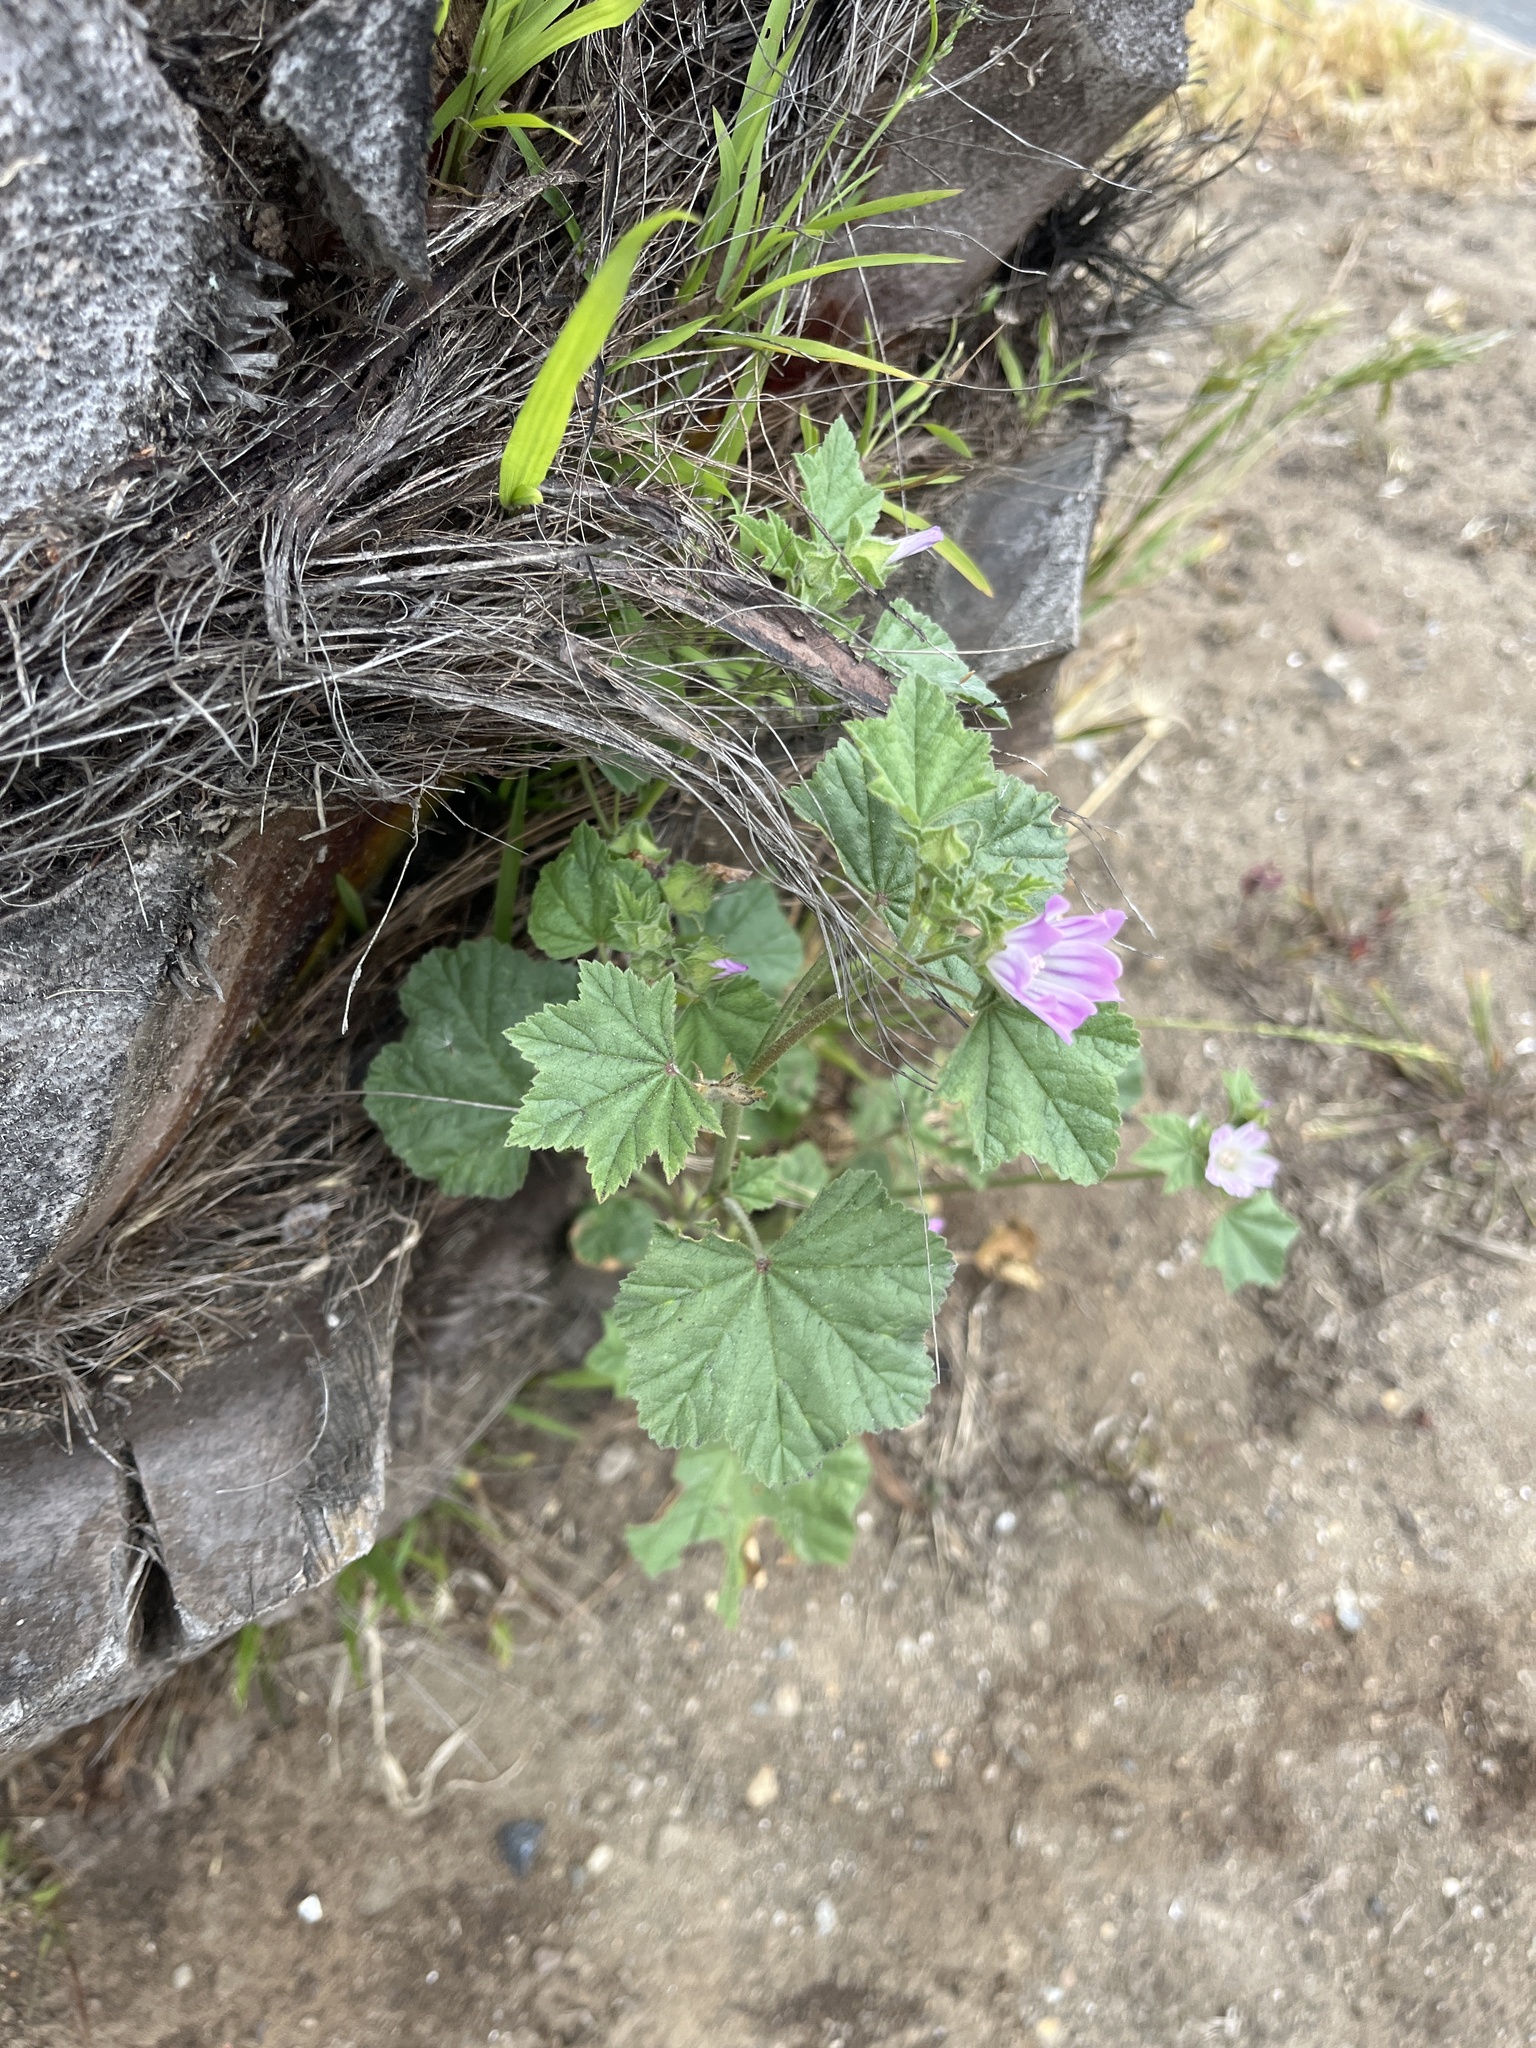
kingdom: Plantae
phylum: Tracheophyta
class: Magnoliopsida
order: Malvales
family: Malvaceae
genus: Malva
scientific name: Malva multiflora
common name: Cheeseweed
